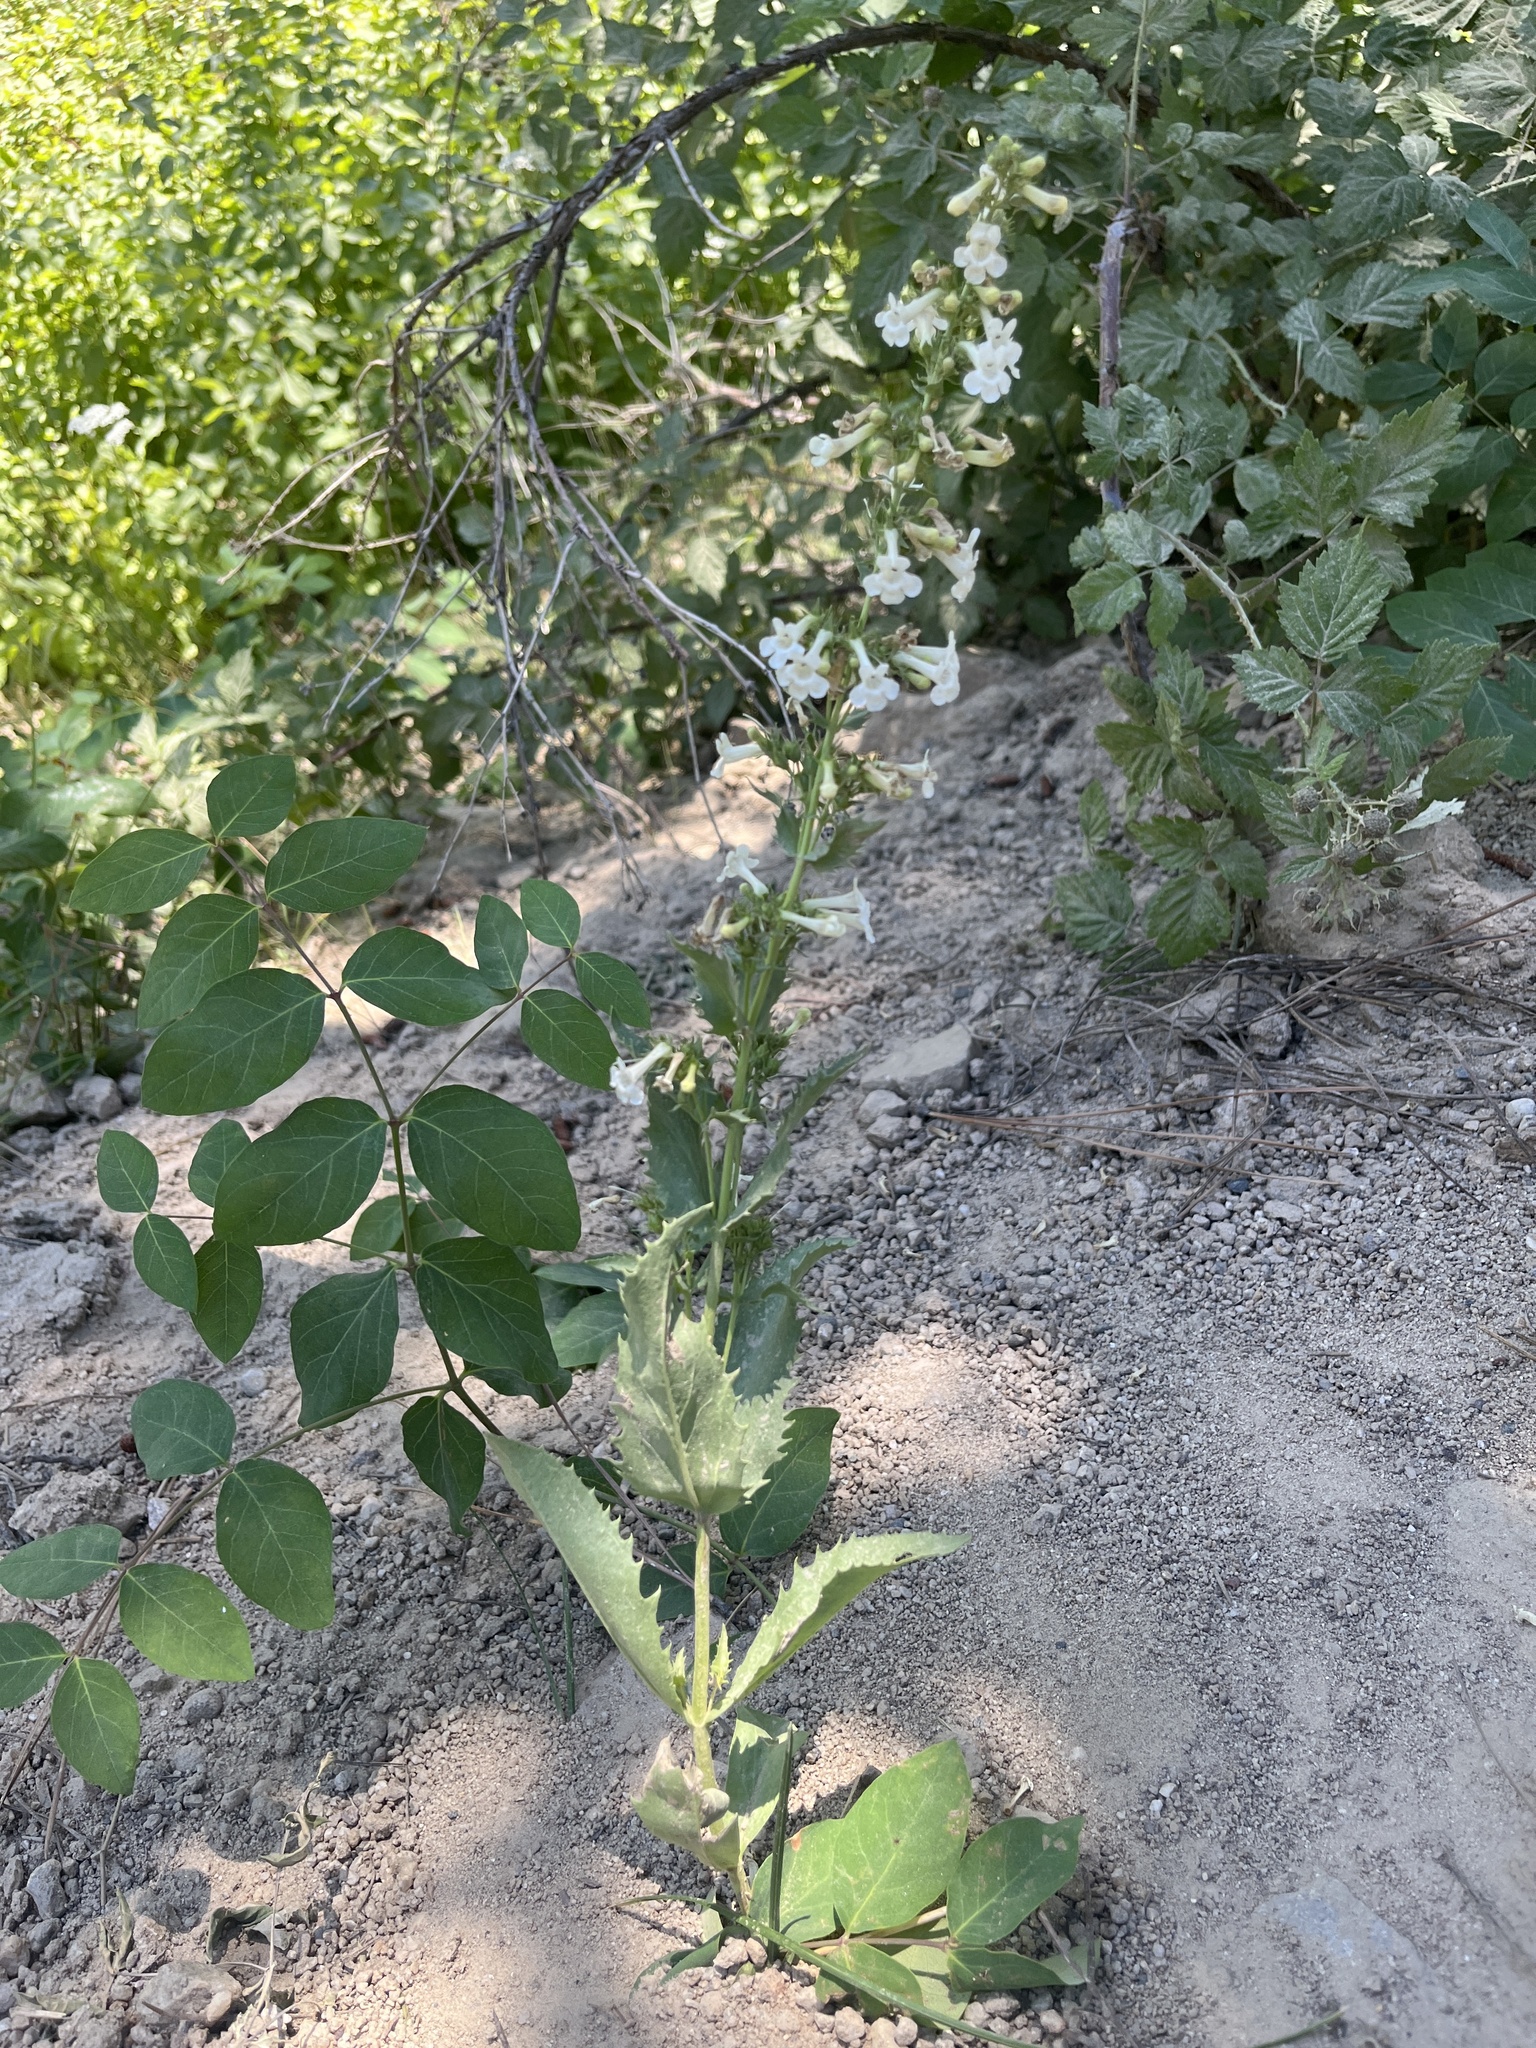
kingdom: Plantae
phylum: Tracheophyta
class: Magnoliopsida
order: Lamiales
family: Plantaginaceae
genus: Penstemon
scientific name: Penstemon deustus
